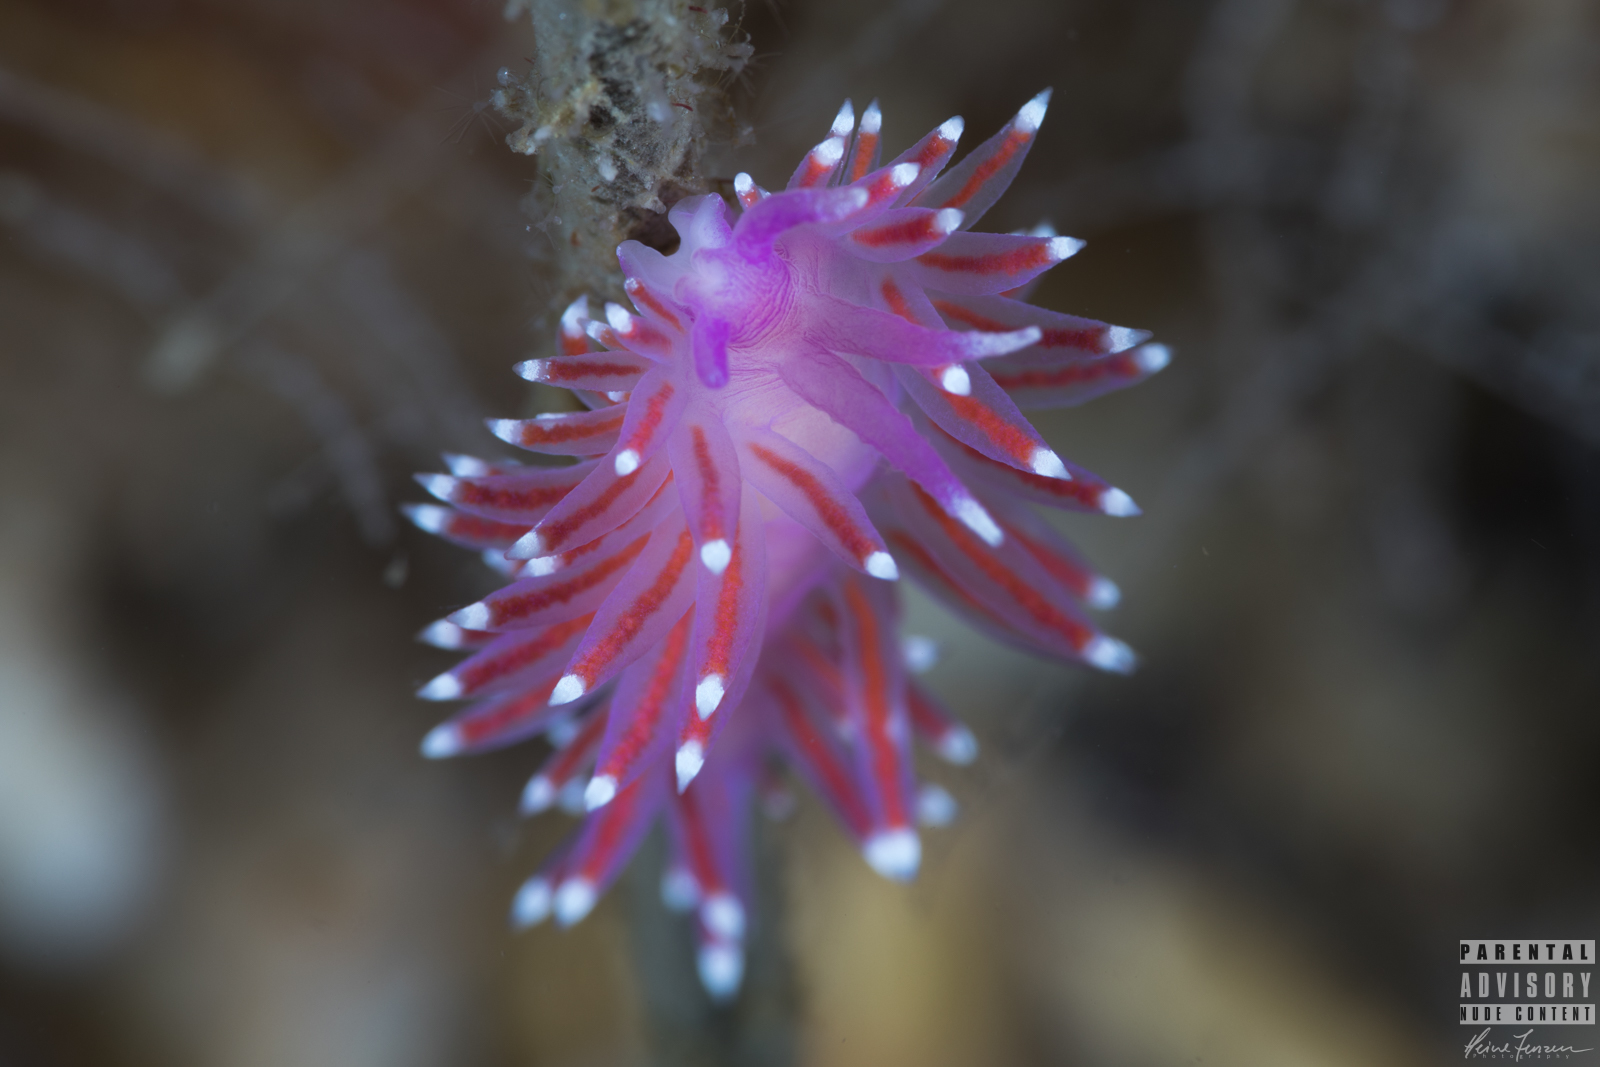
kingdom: Animalia
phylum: Mollusca
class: Gastropoda
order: Nudibranchia
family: Flabellinidae
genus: Edmundsella
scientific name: Edmundsella pedata
